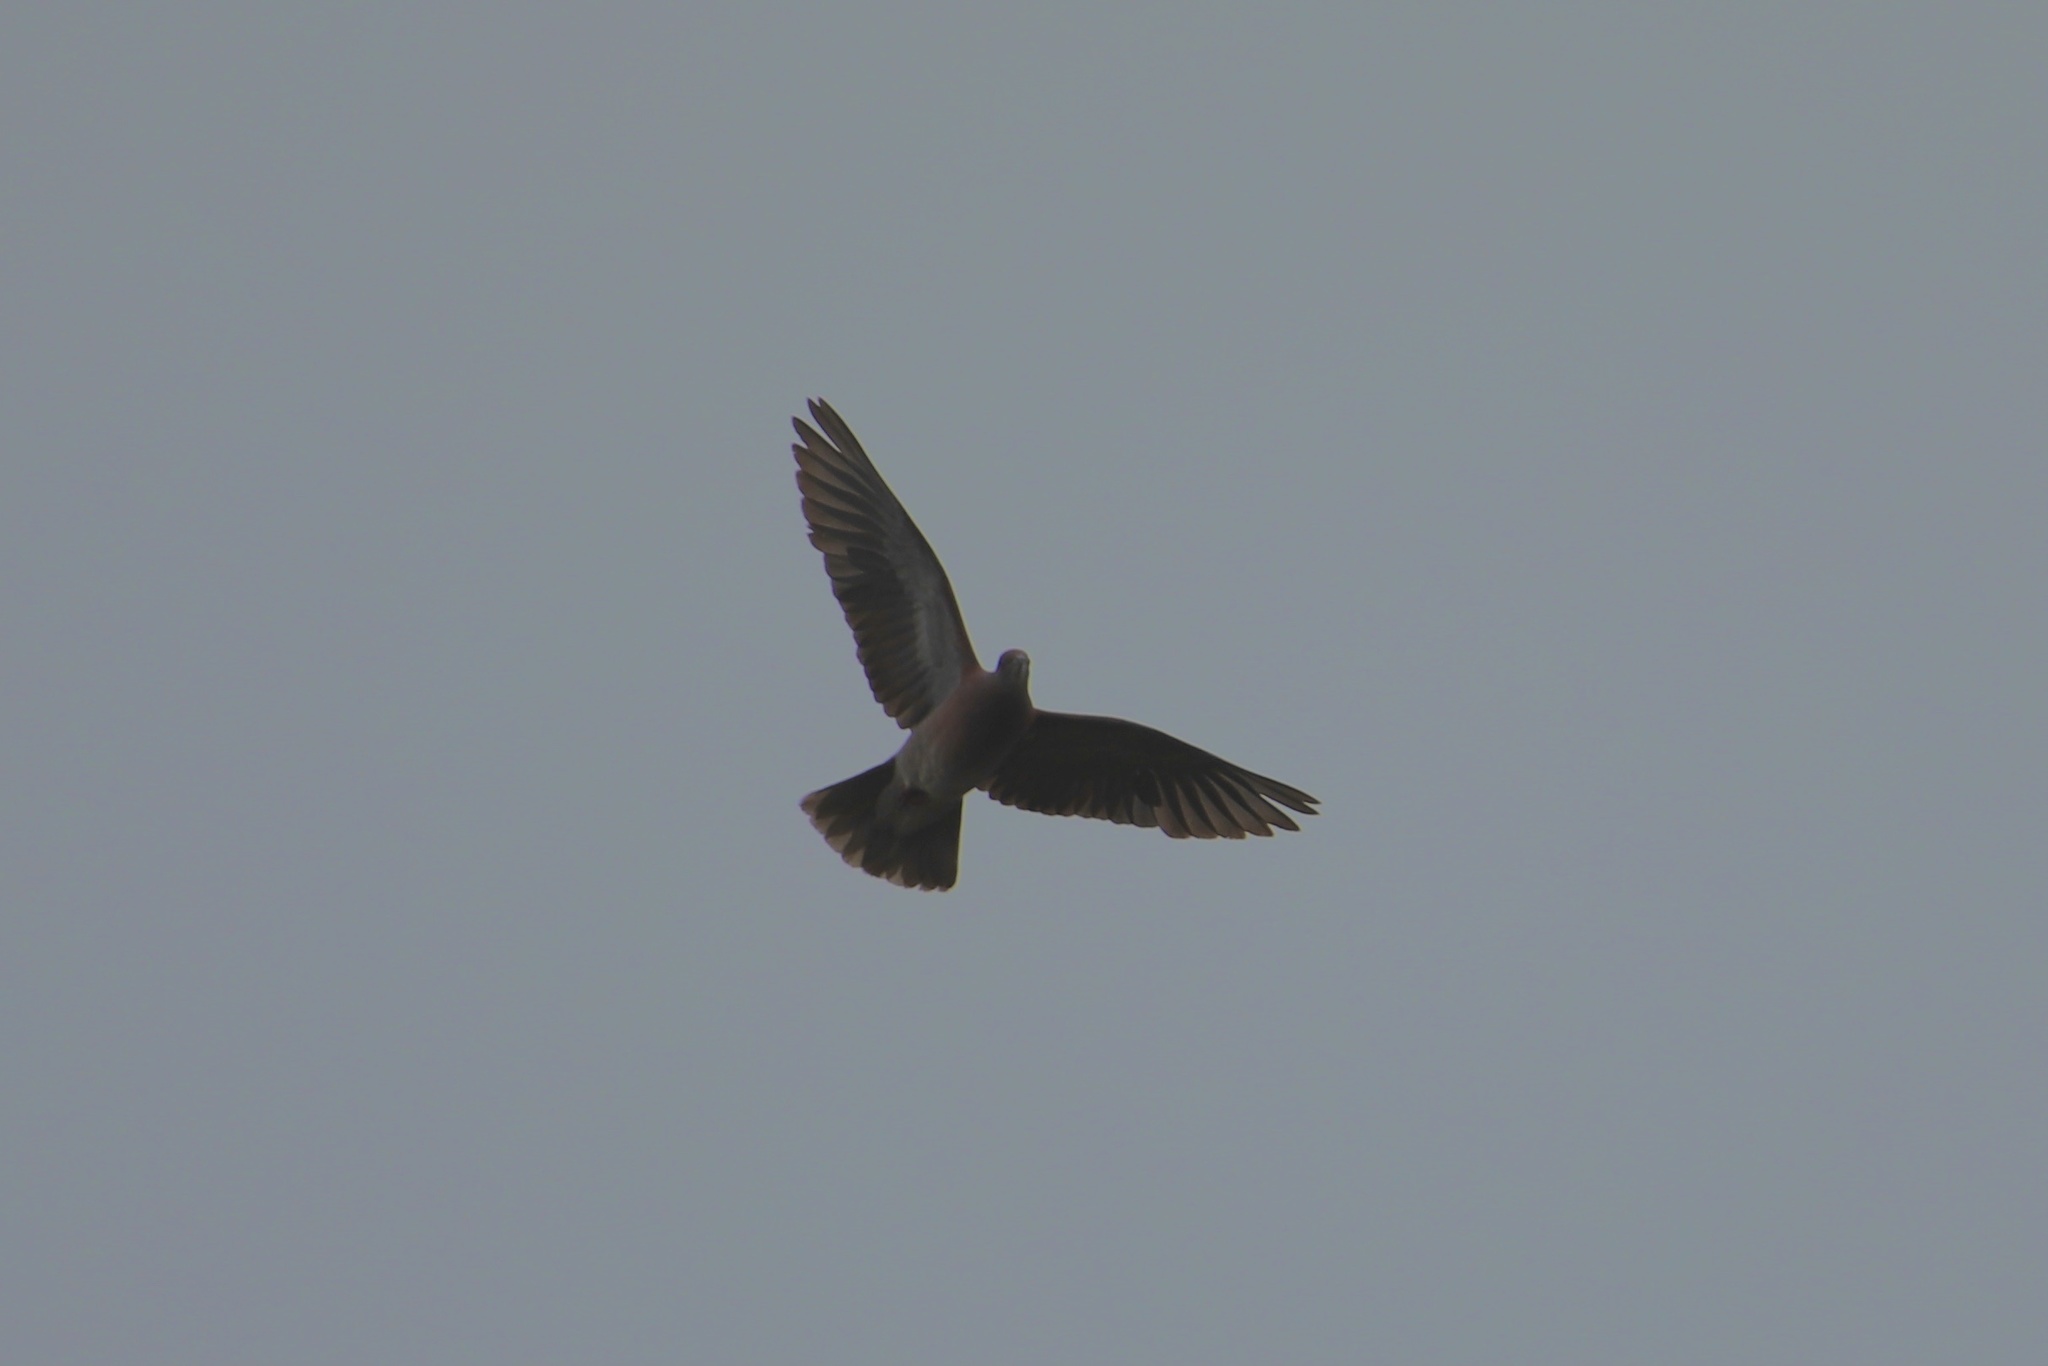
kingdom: Animalia
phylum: Chordata
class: Aves
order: Columbiformes
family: Columbidae
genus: Patagioenas
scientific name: Patagioenas cayennensis
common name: Pale-vented pigeon
